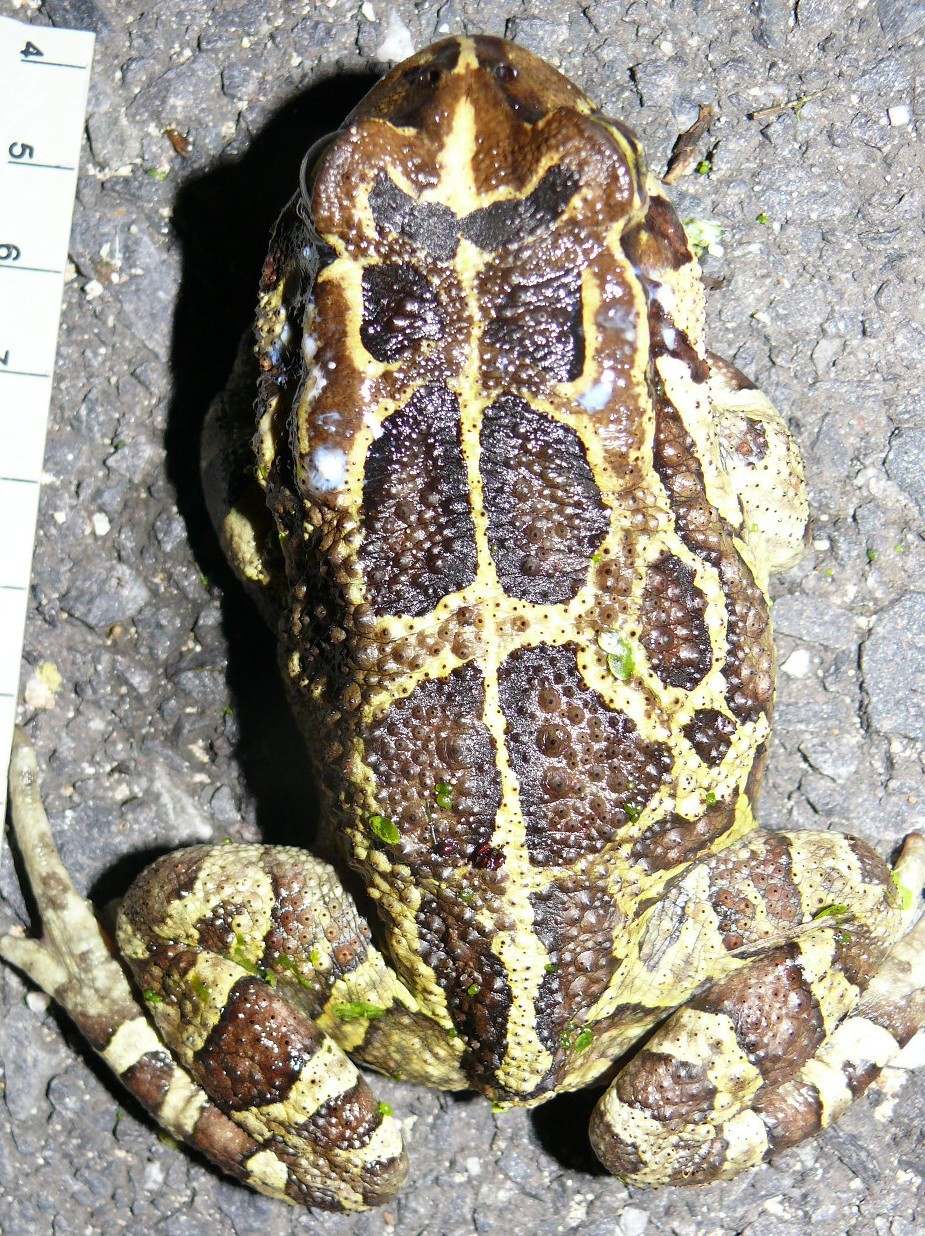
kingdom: Animalia
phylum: Chordata
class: Amphibia
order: Anura
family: Bufonidae
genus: Sclerophrys
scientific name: Sclerophrys pantherina
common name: Panther toad
